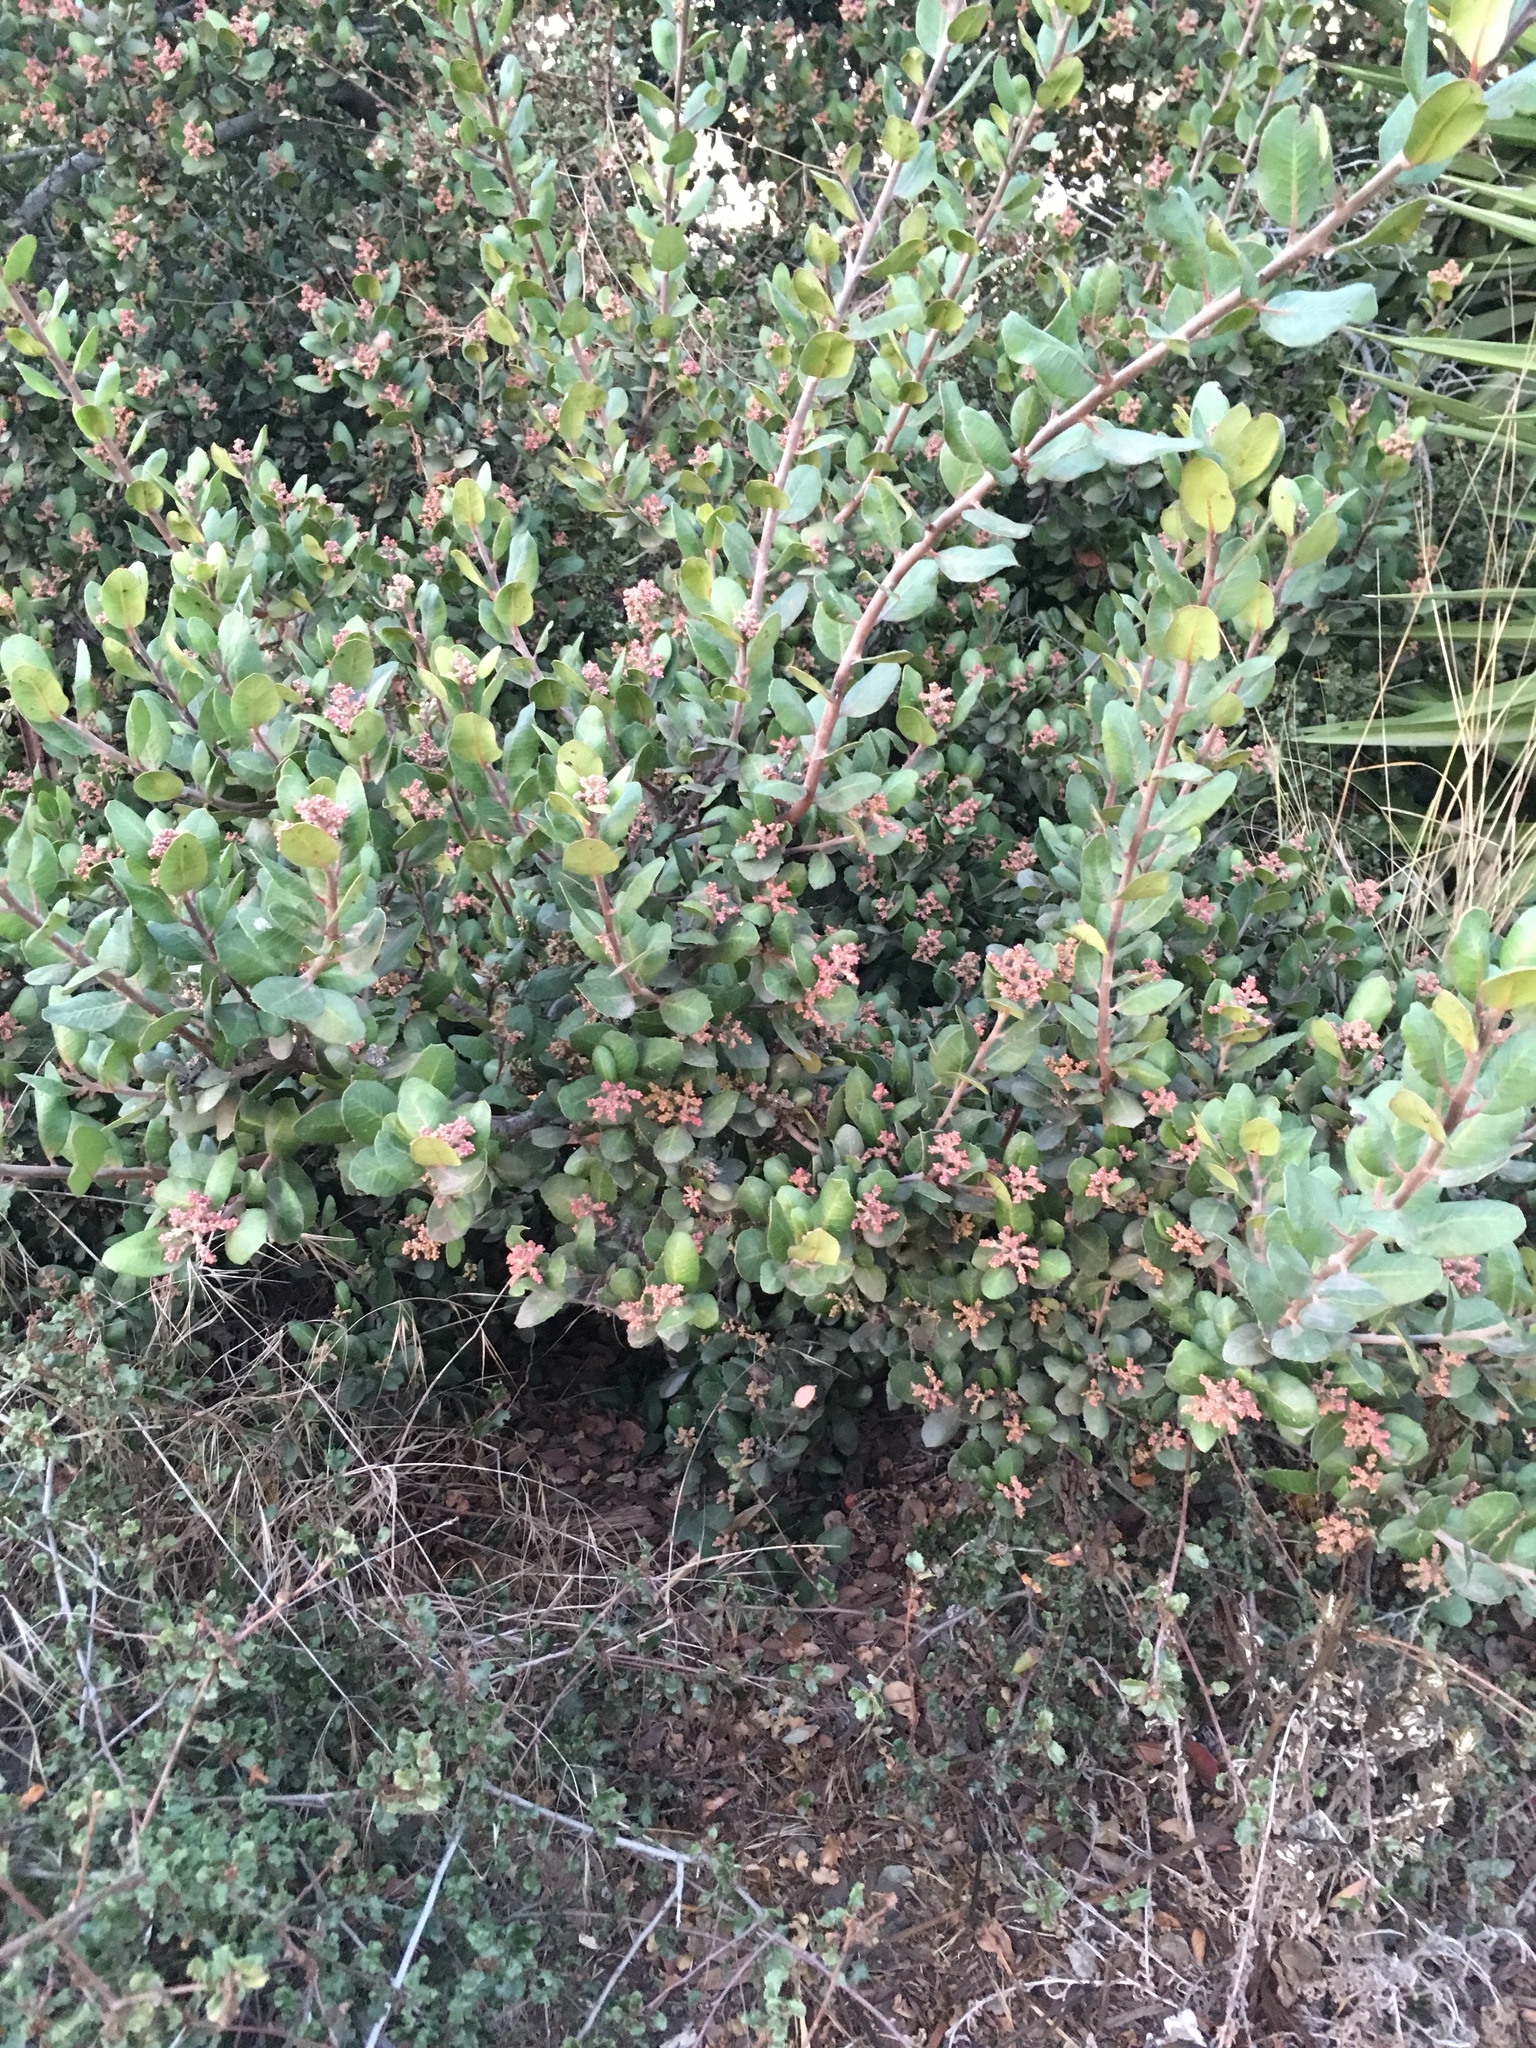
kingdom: Plantae
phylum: Tracheophyta
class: Magnoliopsida
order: Sapindales
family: Anacardiaceae
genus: Rhus
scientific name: Rhus integrifolia
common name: Lemonade sumac
